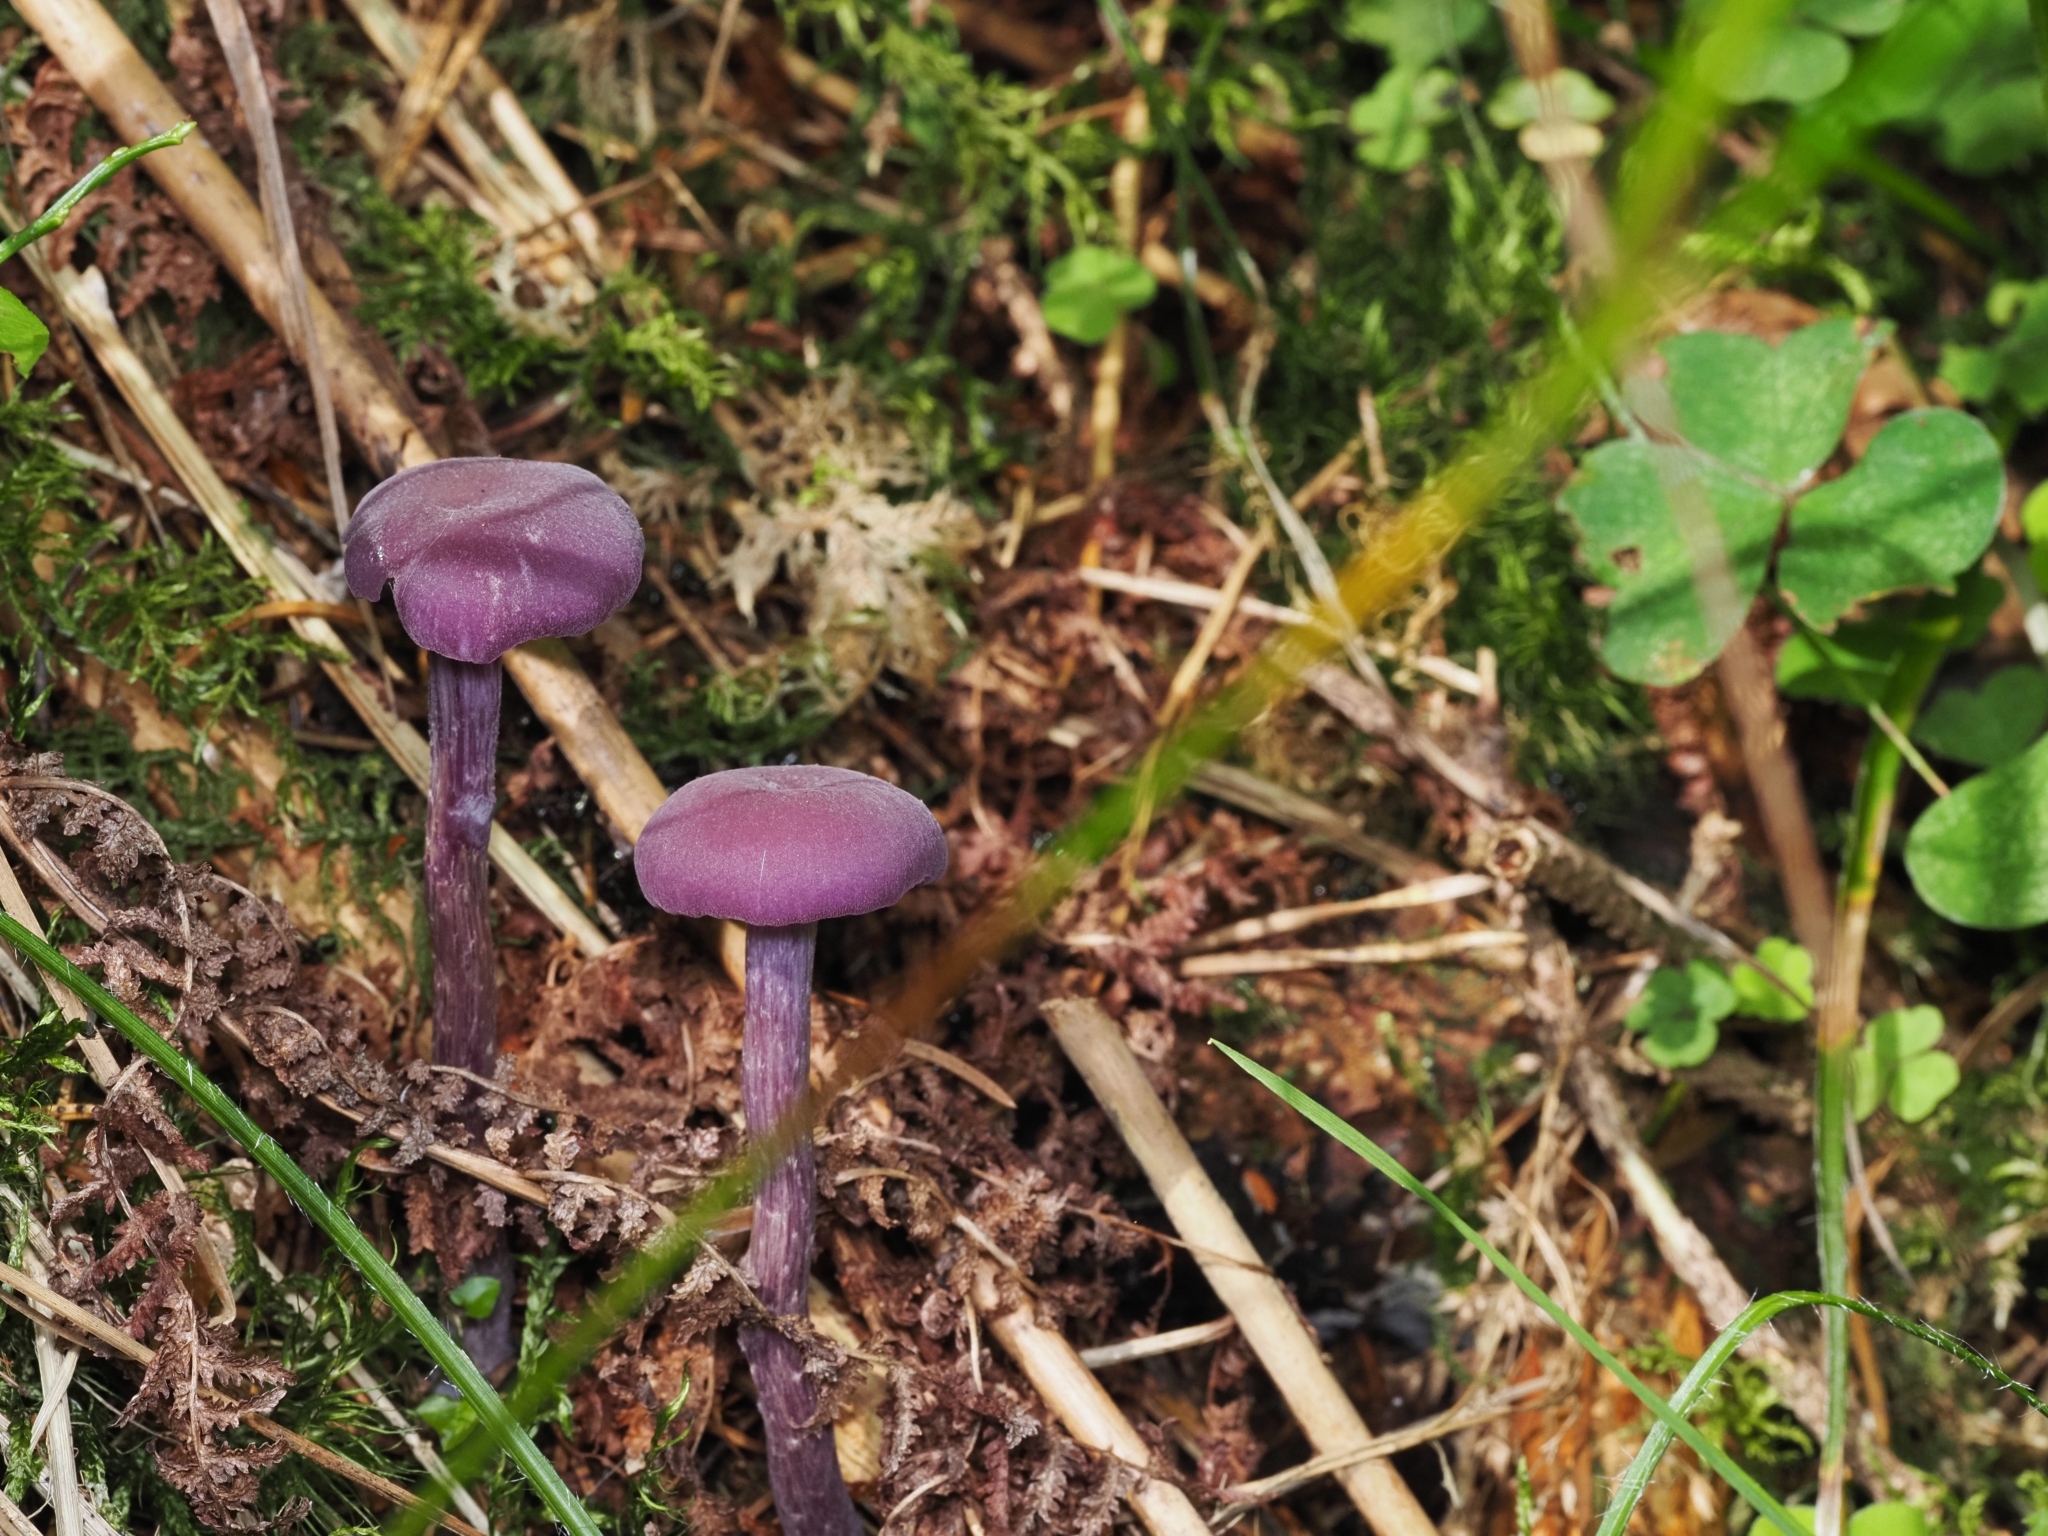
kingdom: Fungi
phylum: Basidiomycota
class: Agaricomycetes
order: Agaricales
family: Hydnangiaceae
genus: Laccaria
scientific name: Laccaria amethystina
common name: Amethyst deceiver
